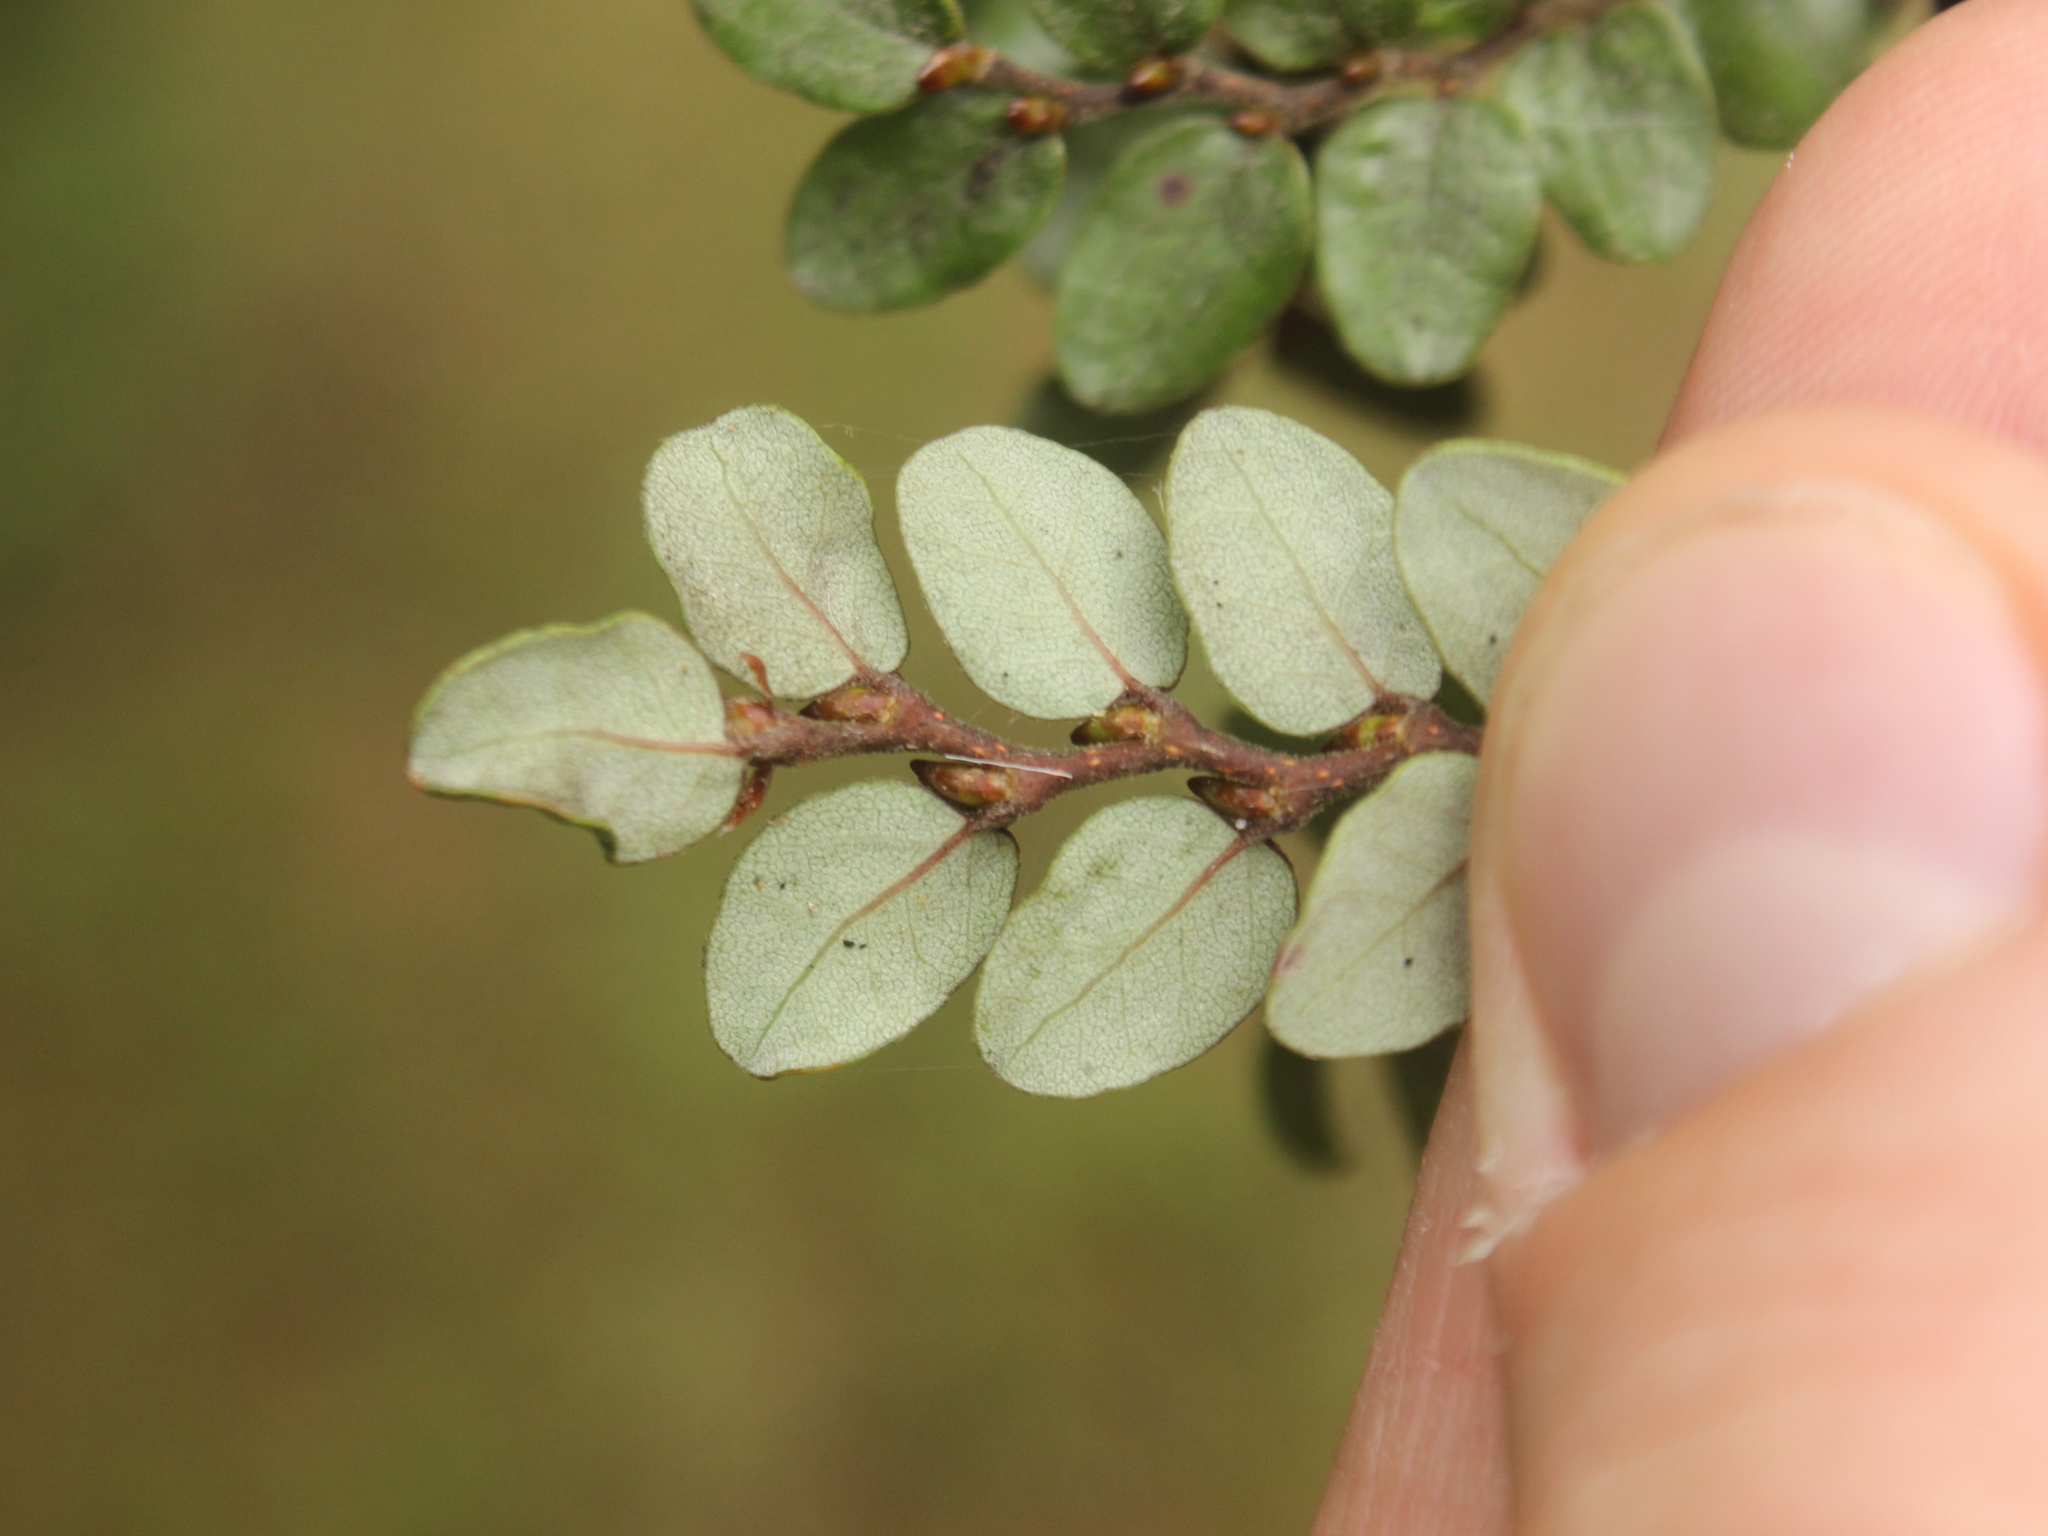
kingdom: Plantae
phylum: Tracheophyta
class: Magnoliopsida
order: Fagales
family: Nothofagaceae
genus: Nothofagus
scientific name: Nothofagus cliffortioides
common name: Mountain beech
